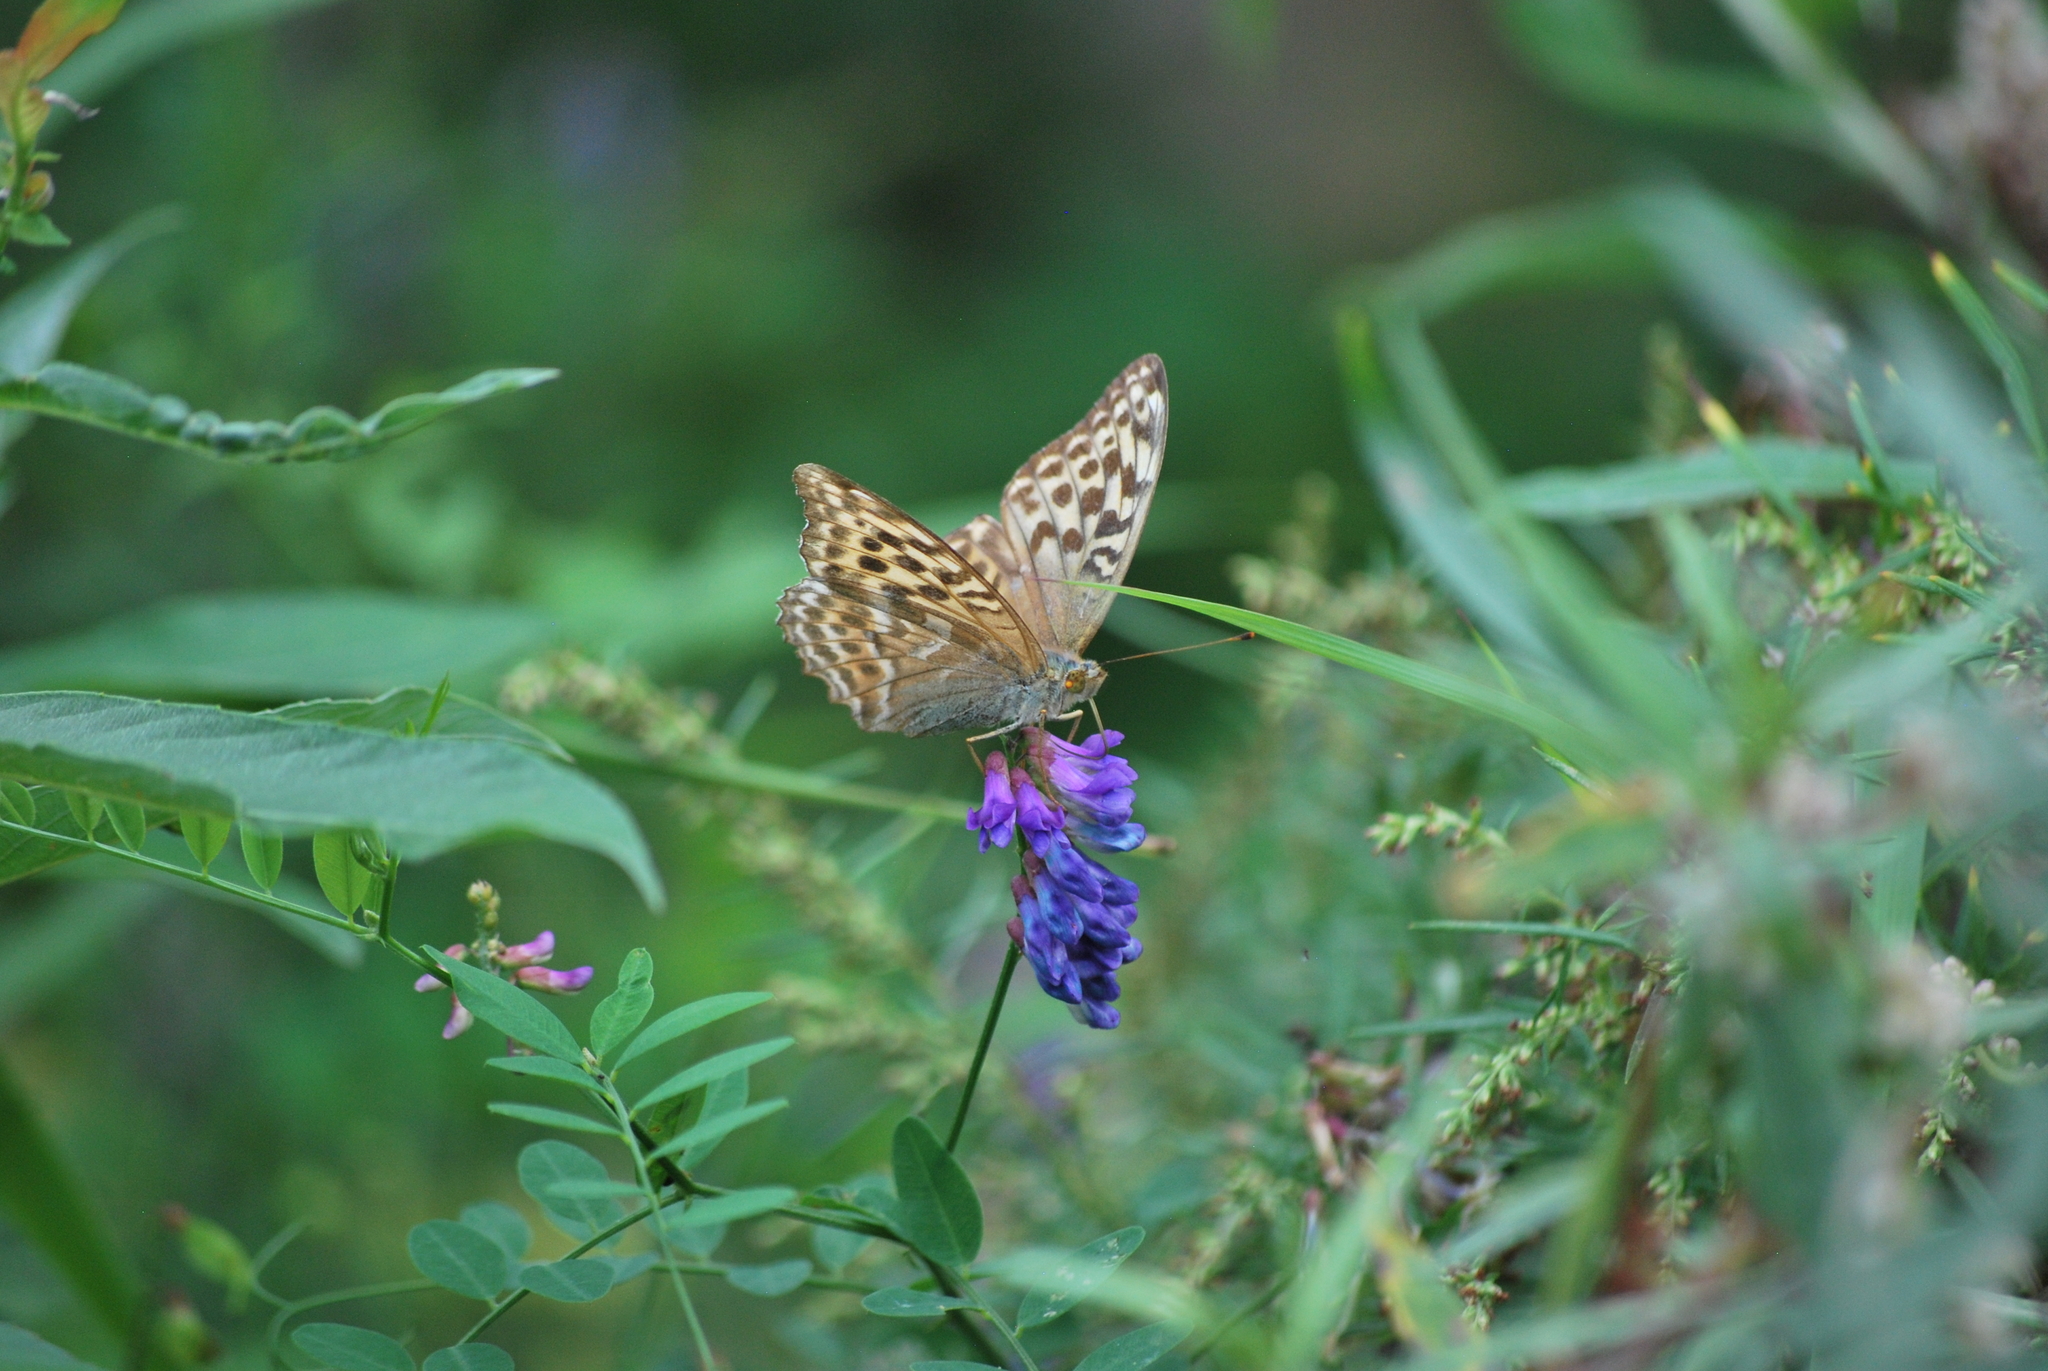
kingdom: Animalia
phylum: Arthropoda
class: Insecta
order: Lepidoptera
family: Nymphalidae
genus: Argynnis
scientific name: Argynnis paphia
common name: Silver-washed fritillary
